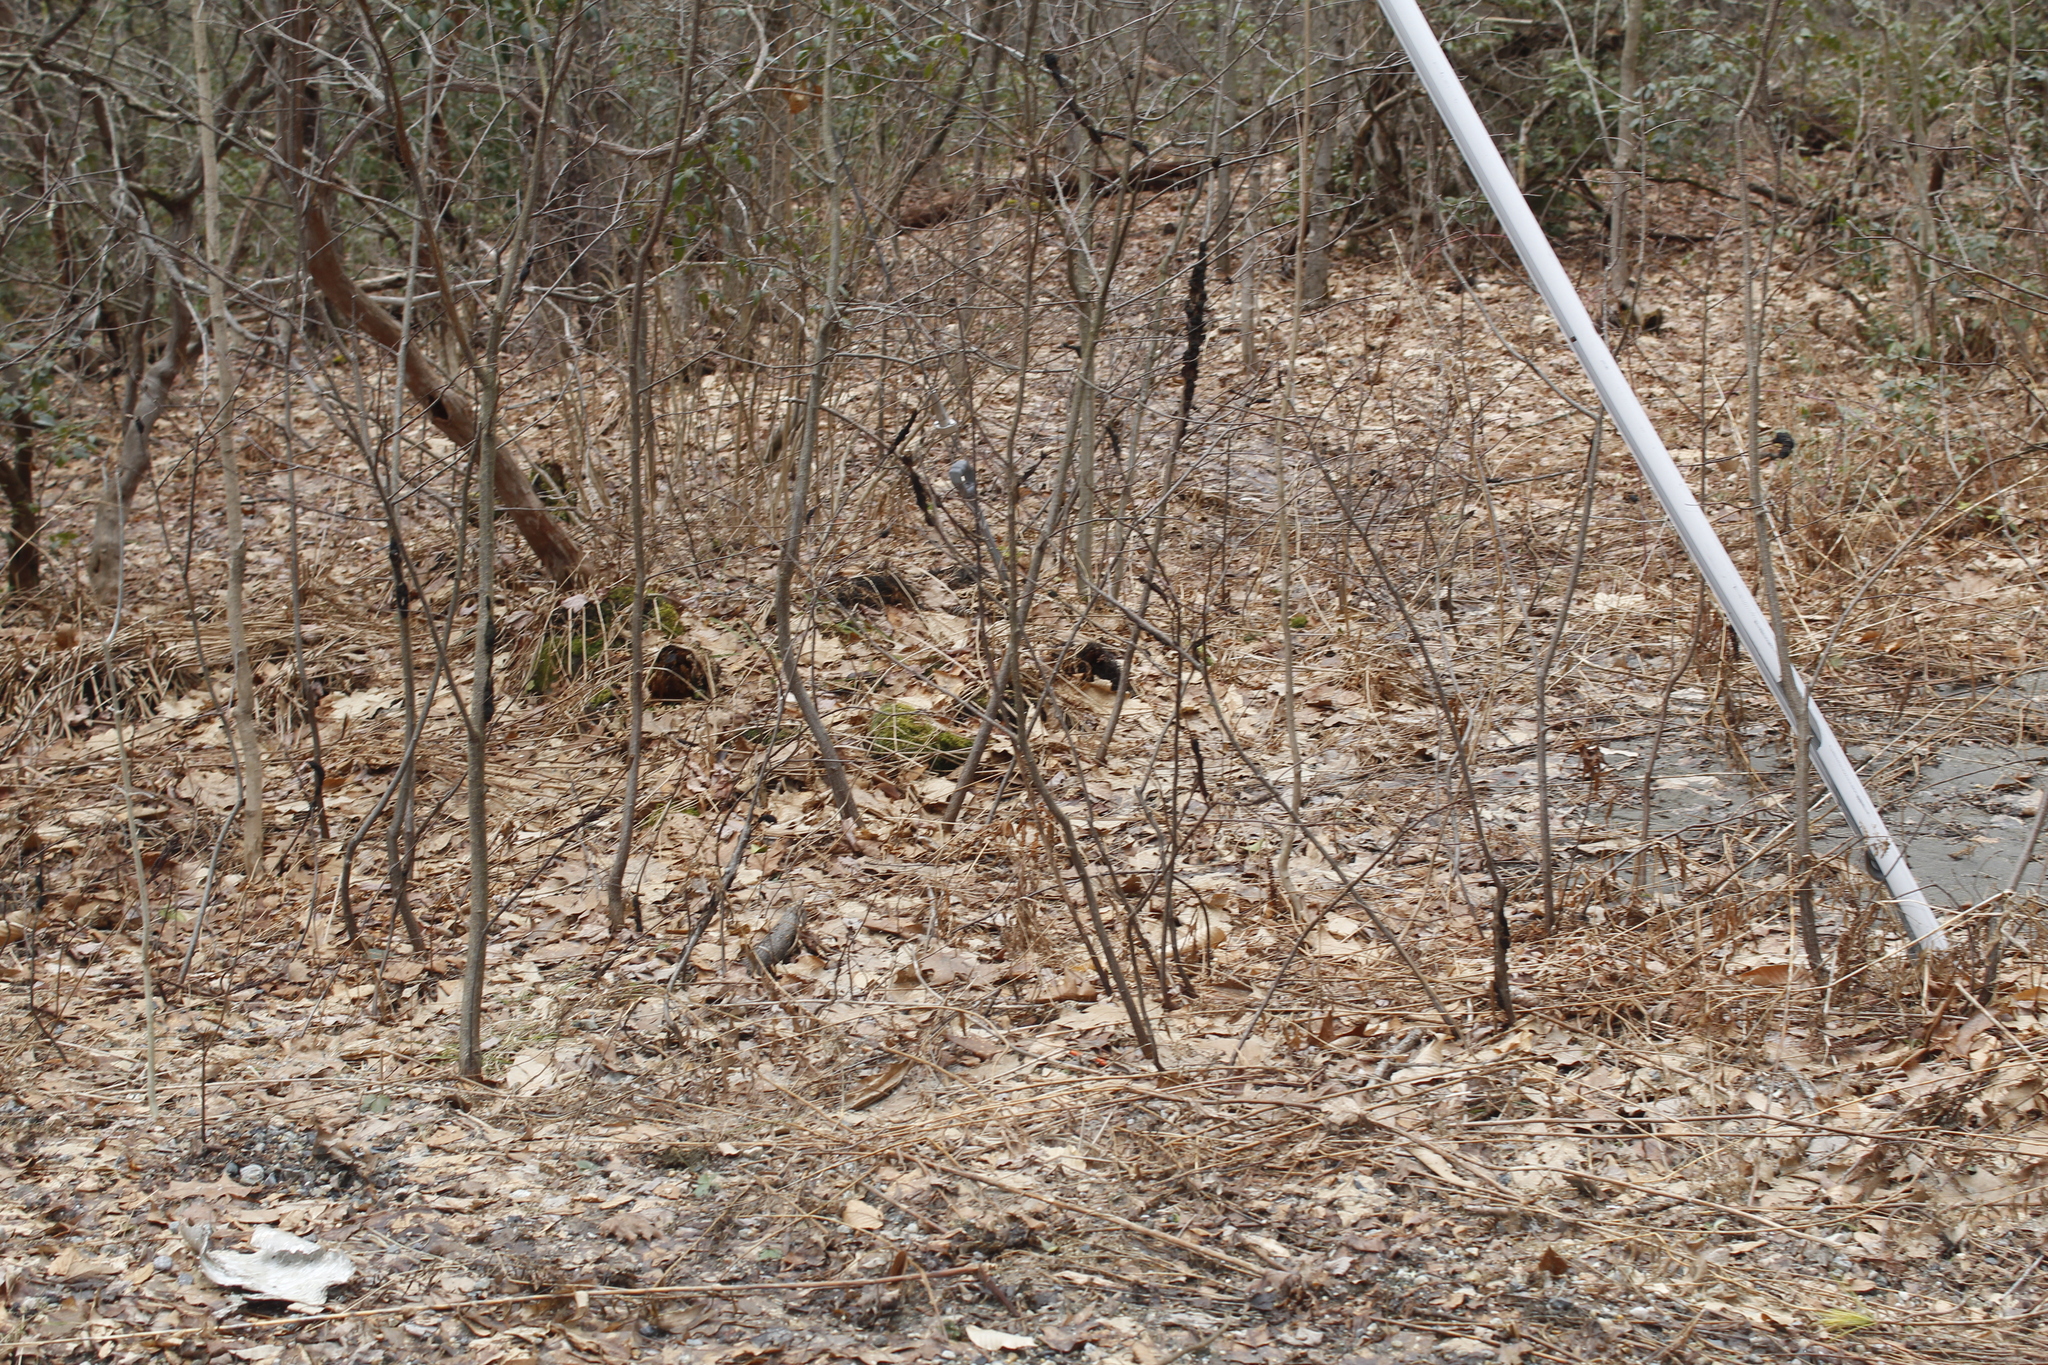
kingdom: Fungi
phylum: Ascomycota
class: Dothideomycetes
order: Venturiales
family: Venturiaceae
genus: Apiosporina
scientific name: Apiosporina morbosa
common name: Black knot
